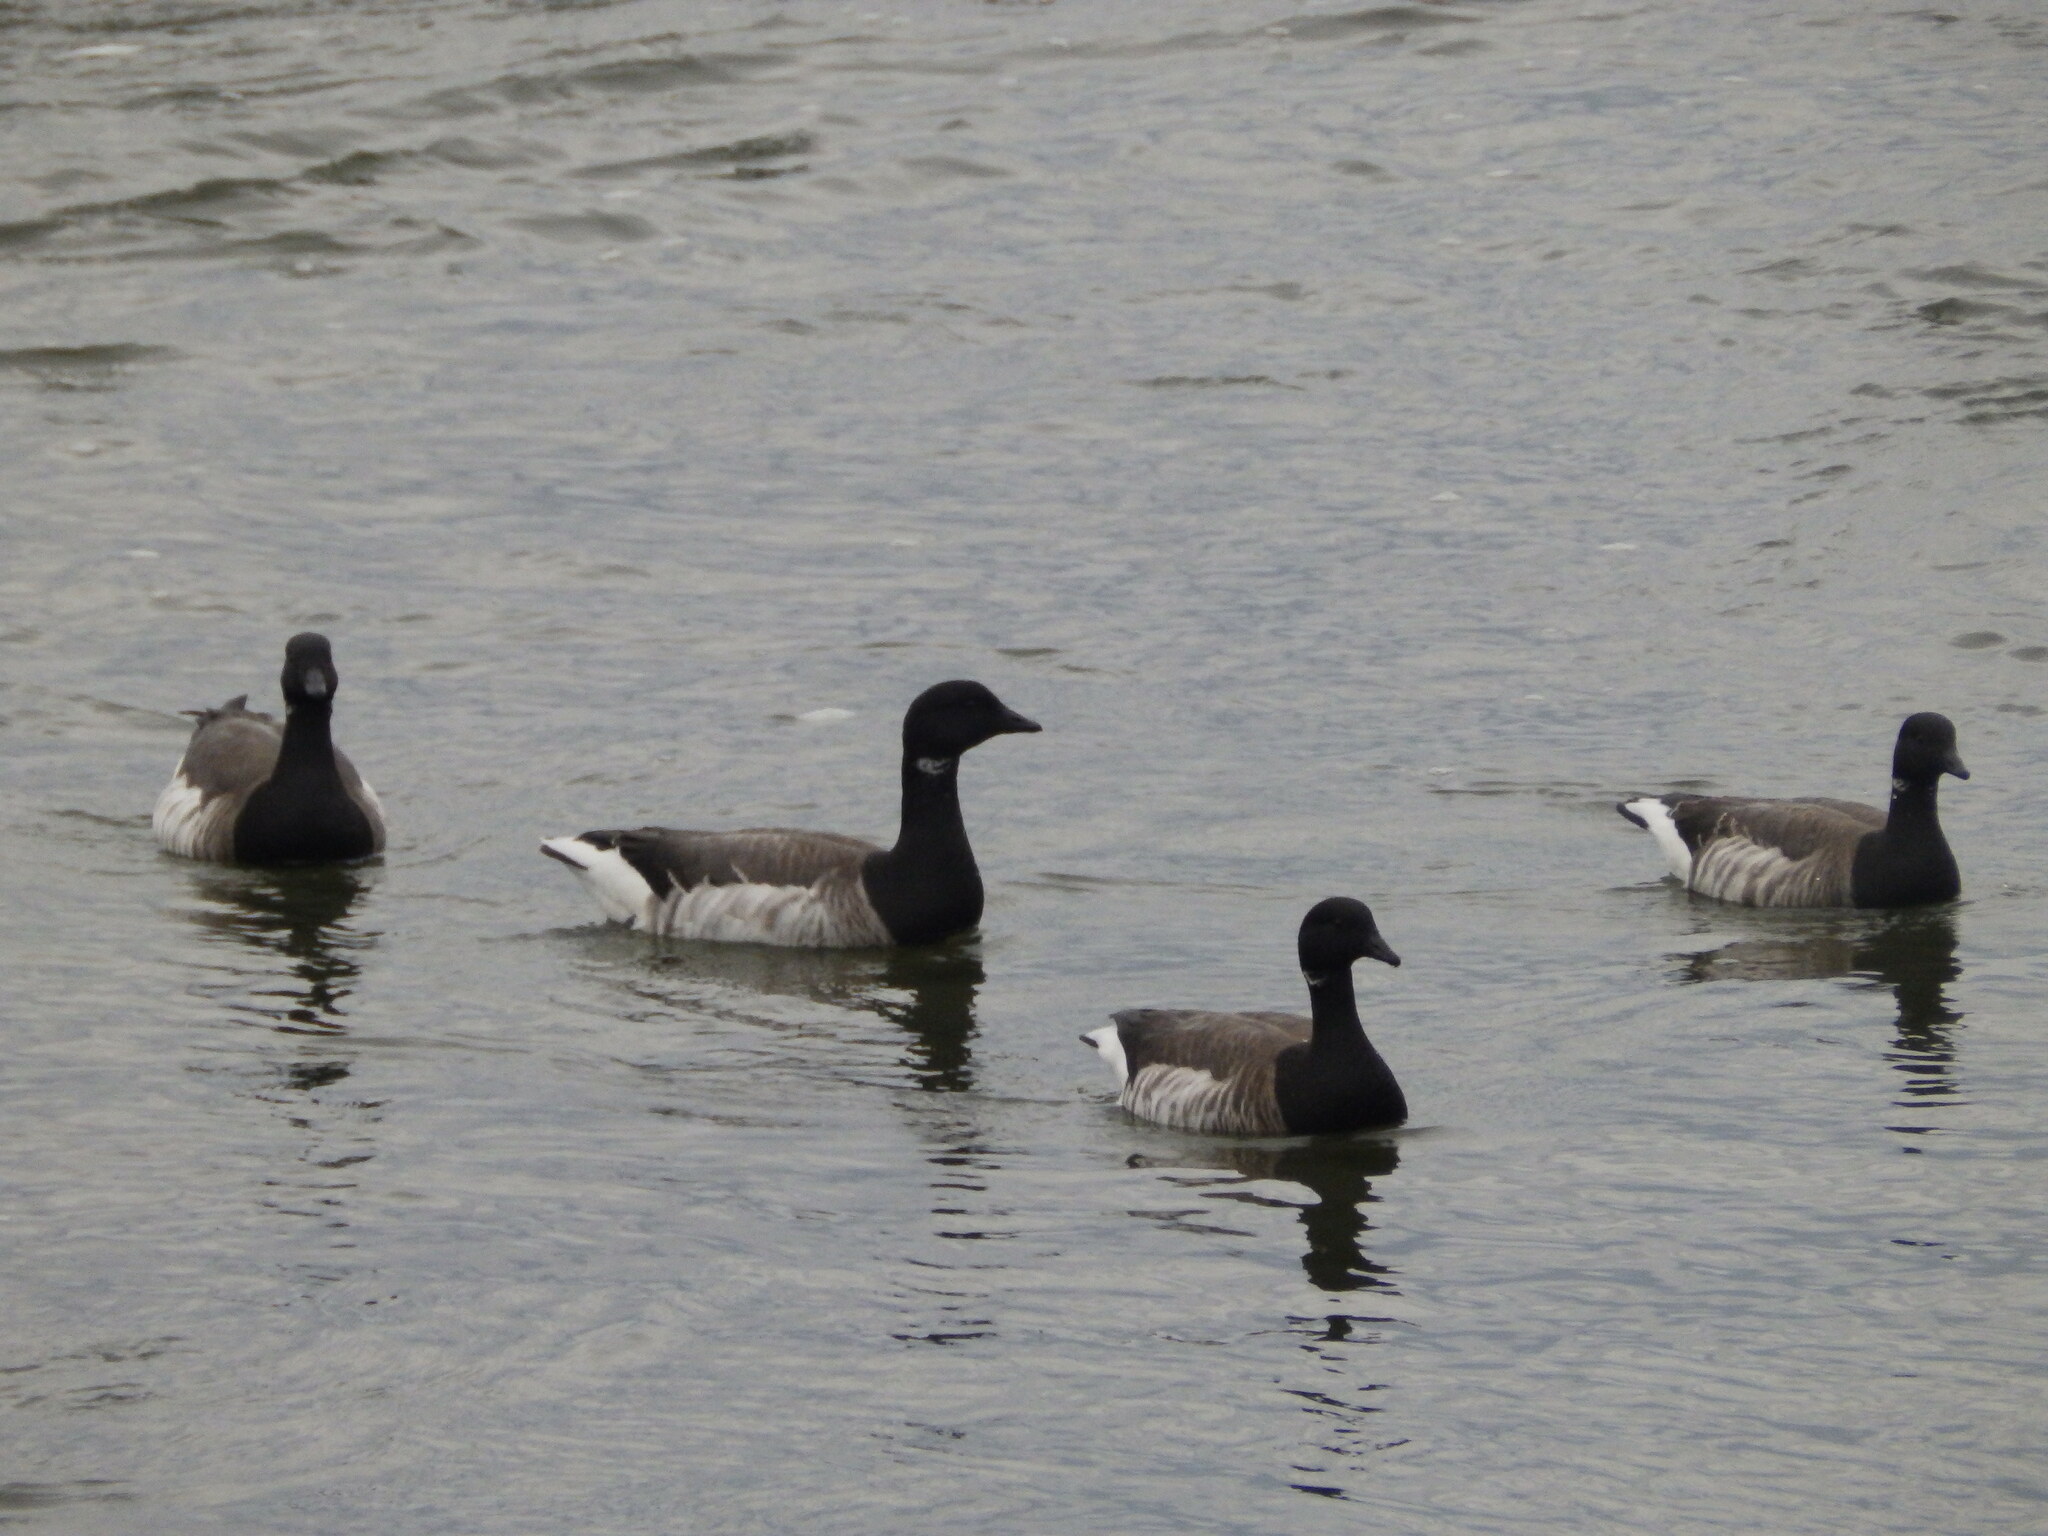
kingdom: Animalia
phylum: Chordata
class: Aves
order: Anseriformes
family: Anatidae
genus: Branta
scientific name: Branta bernicla
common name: Brant goose
